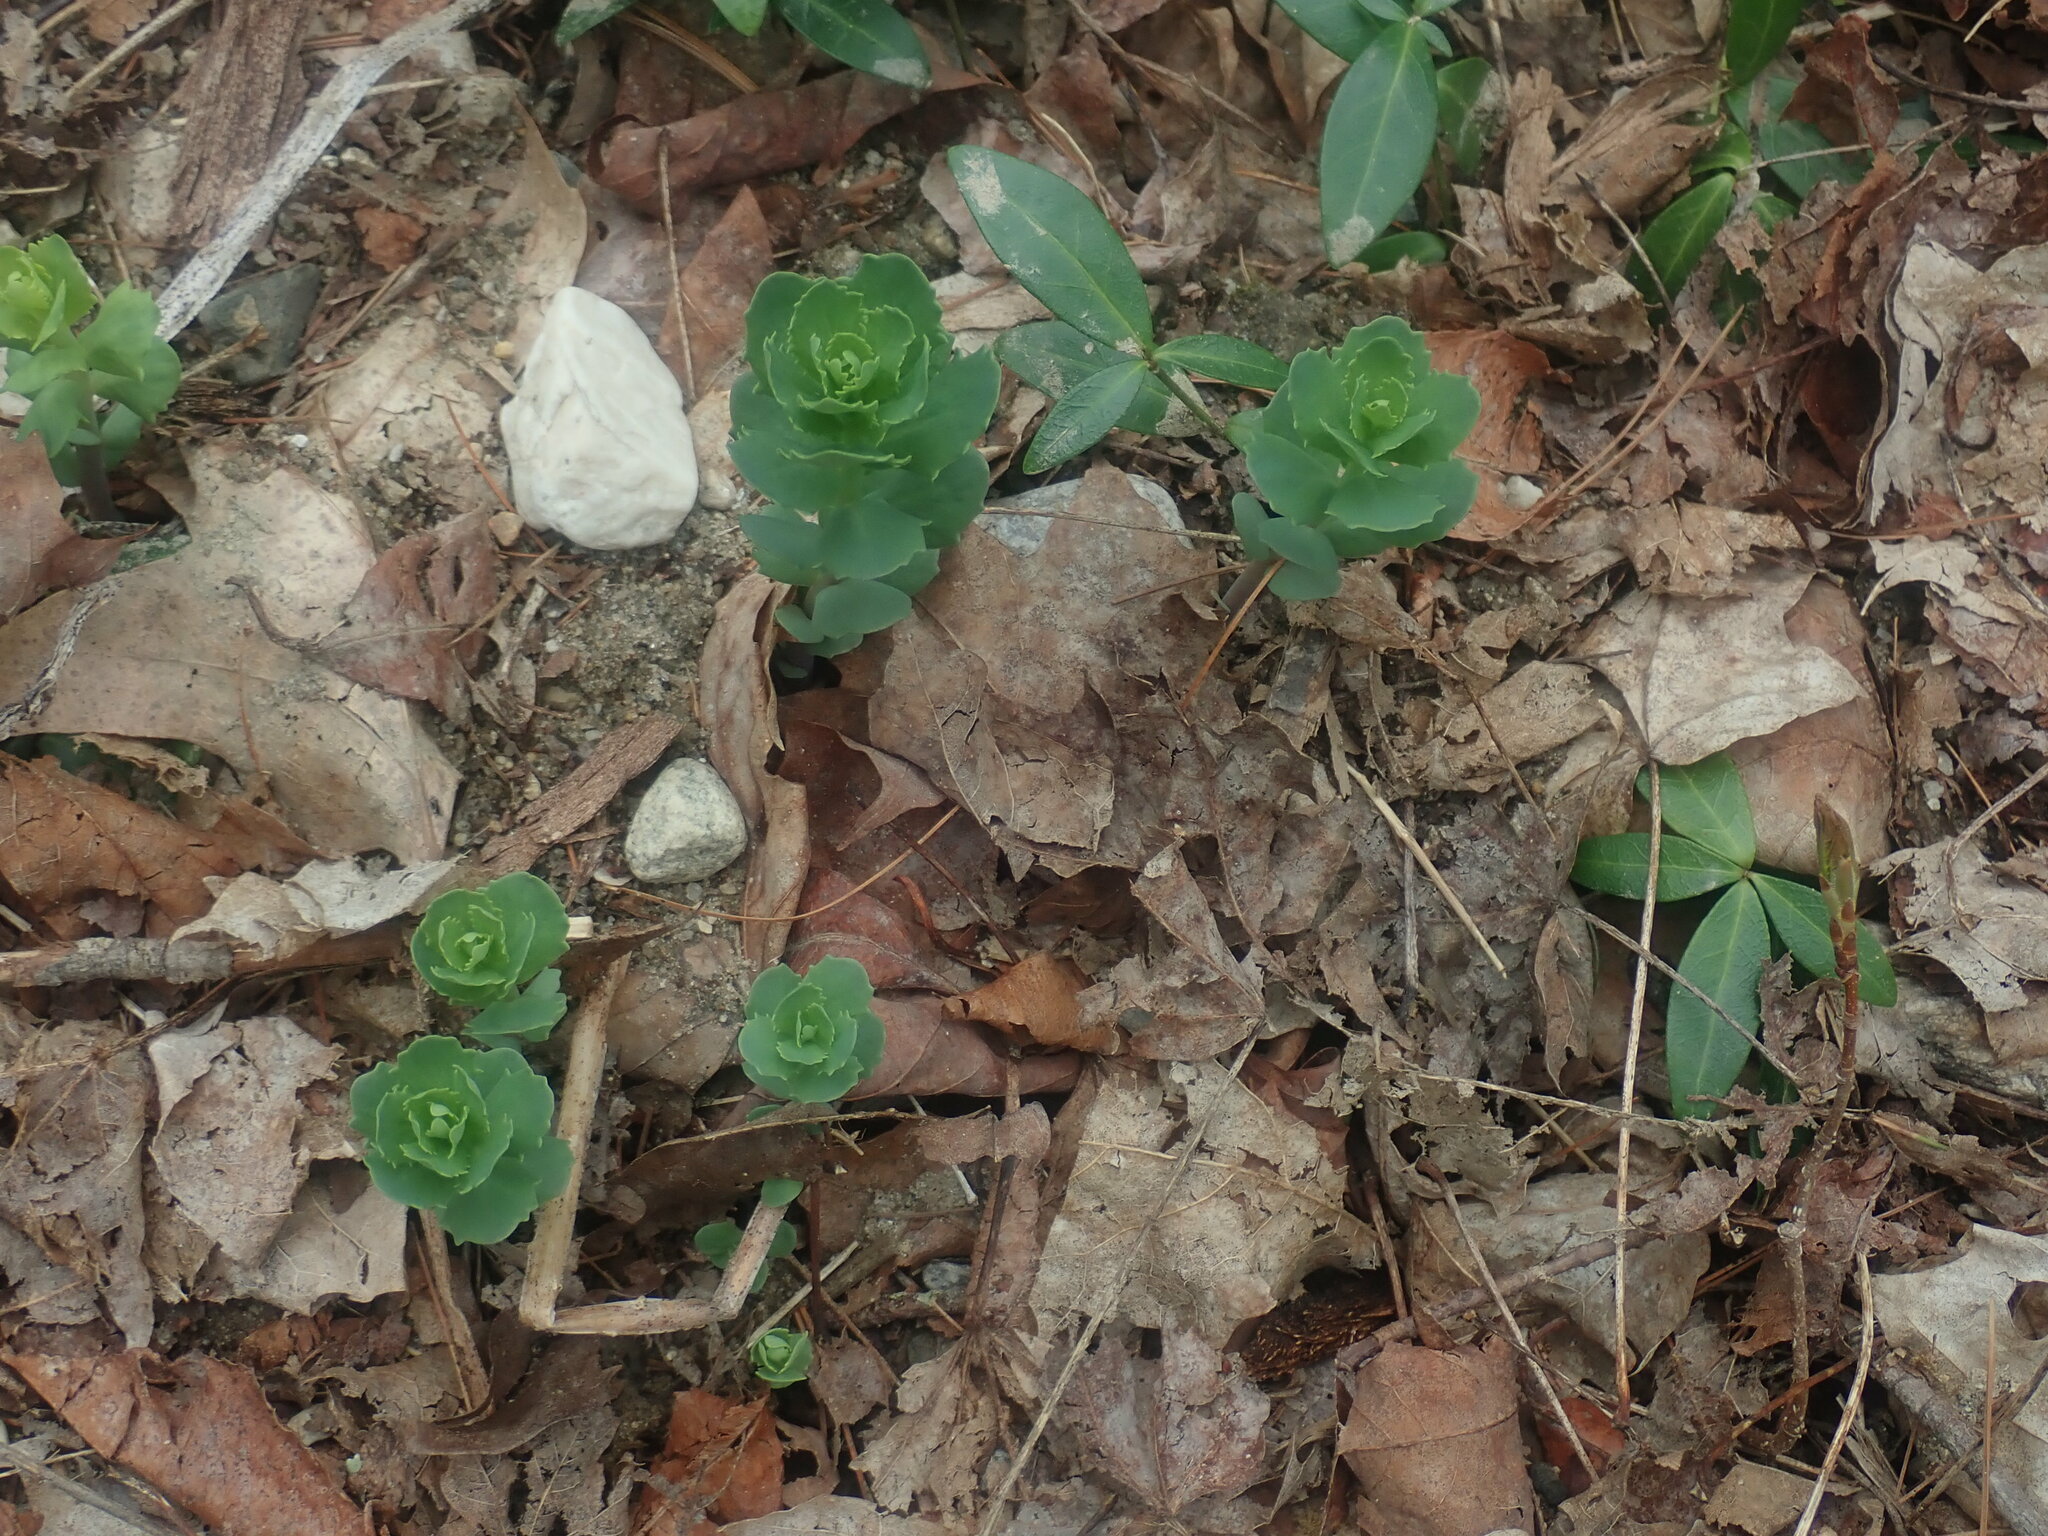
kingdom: Plantae
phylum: Tracheophyta
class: Magnoliopsida
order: Saxifragales
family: Crassulaceae
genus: Hylotelephium
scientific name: Hylotelephium telephium
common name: Live-forever
